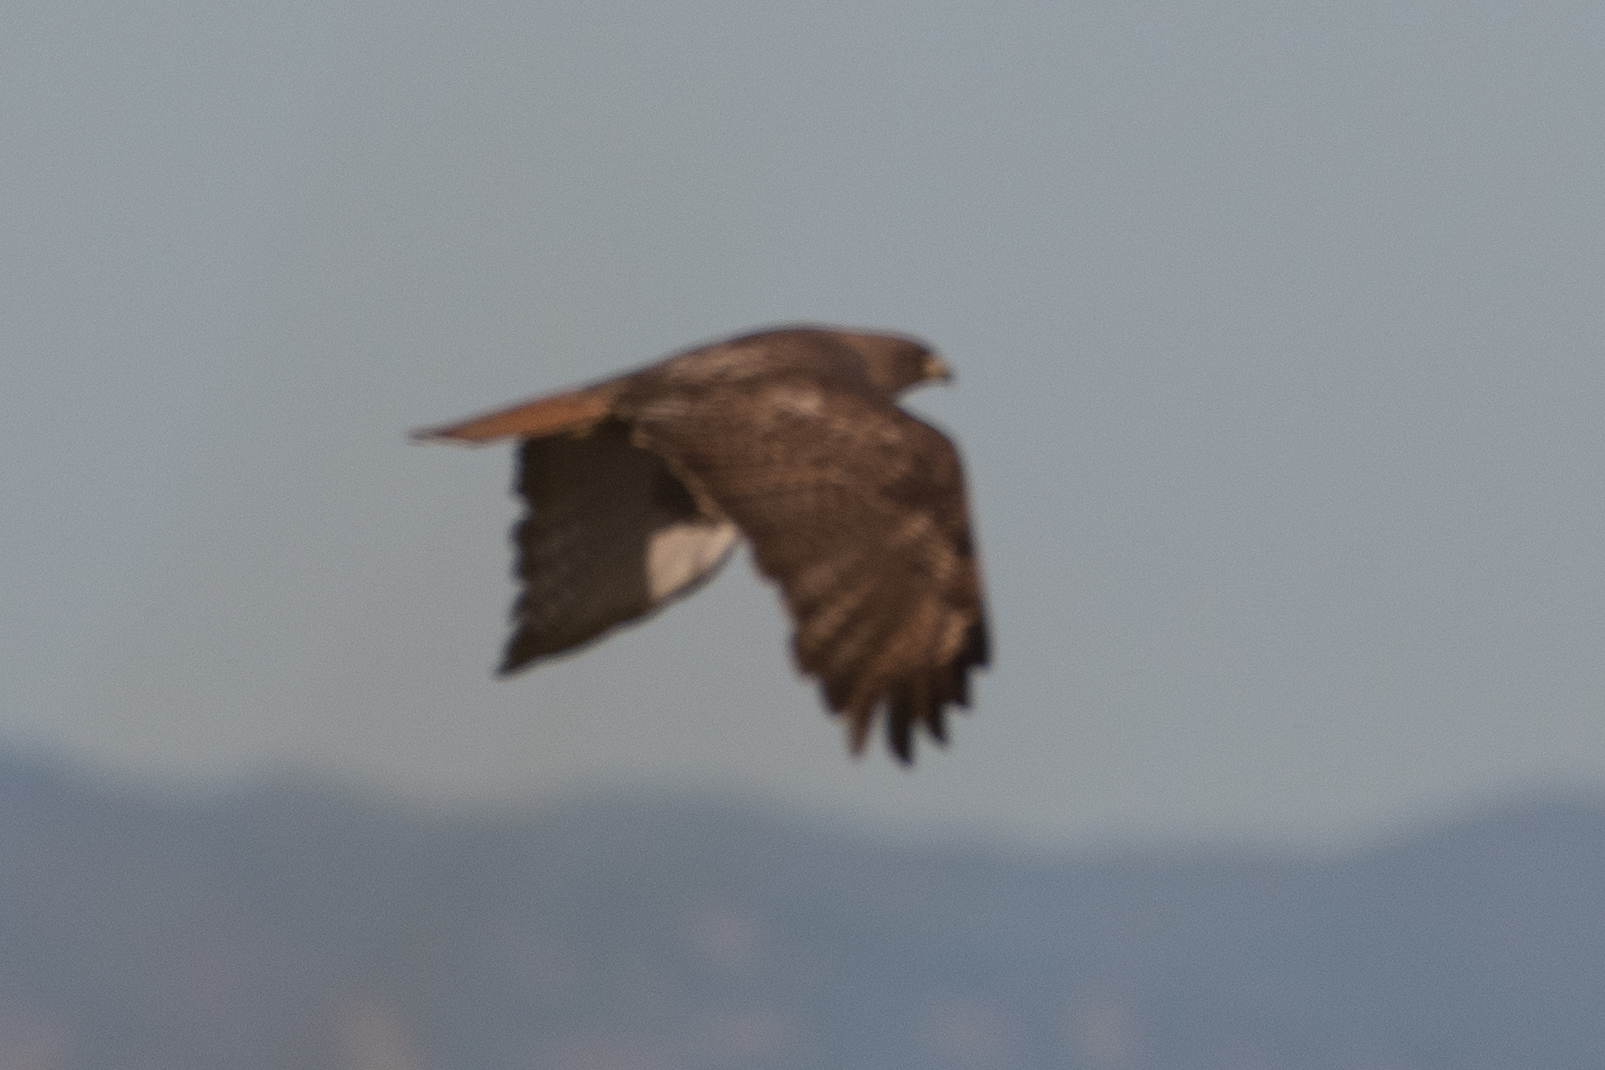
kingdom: Animalia
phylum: Chordata
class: Aves
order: Accipitriformes
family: Accipitridae
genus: Buteo
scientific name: Buteo jamaicensis
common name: Red-tailed hawk
